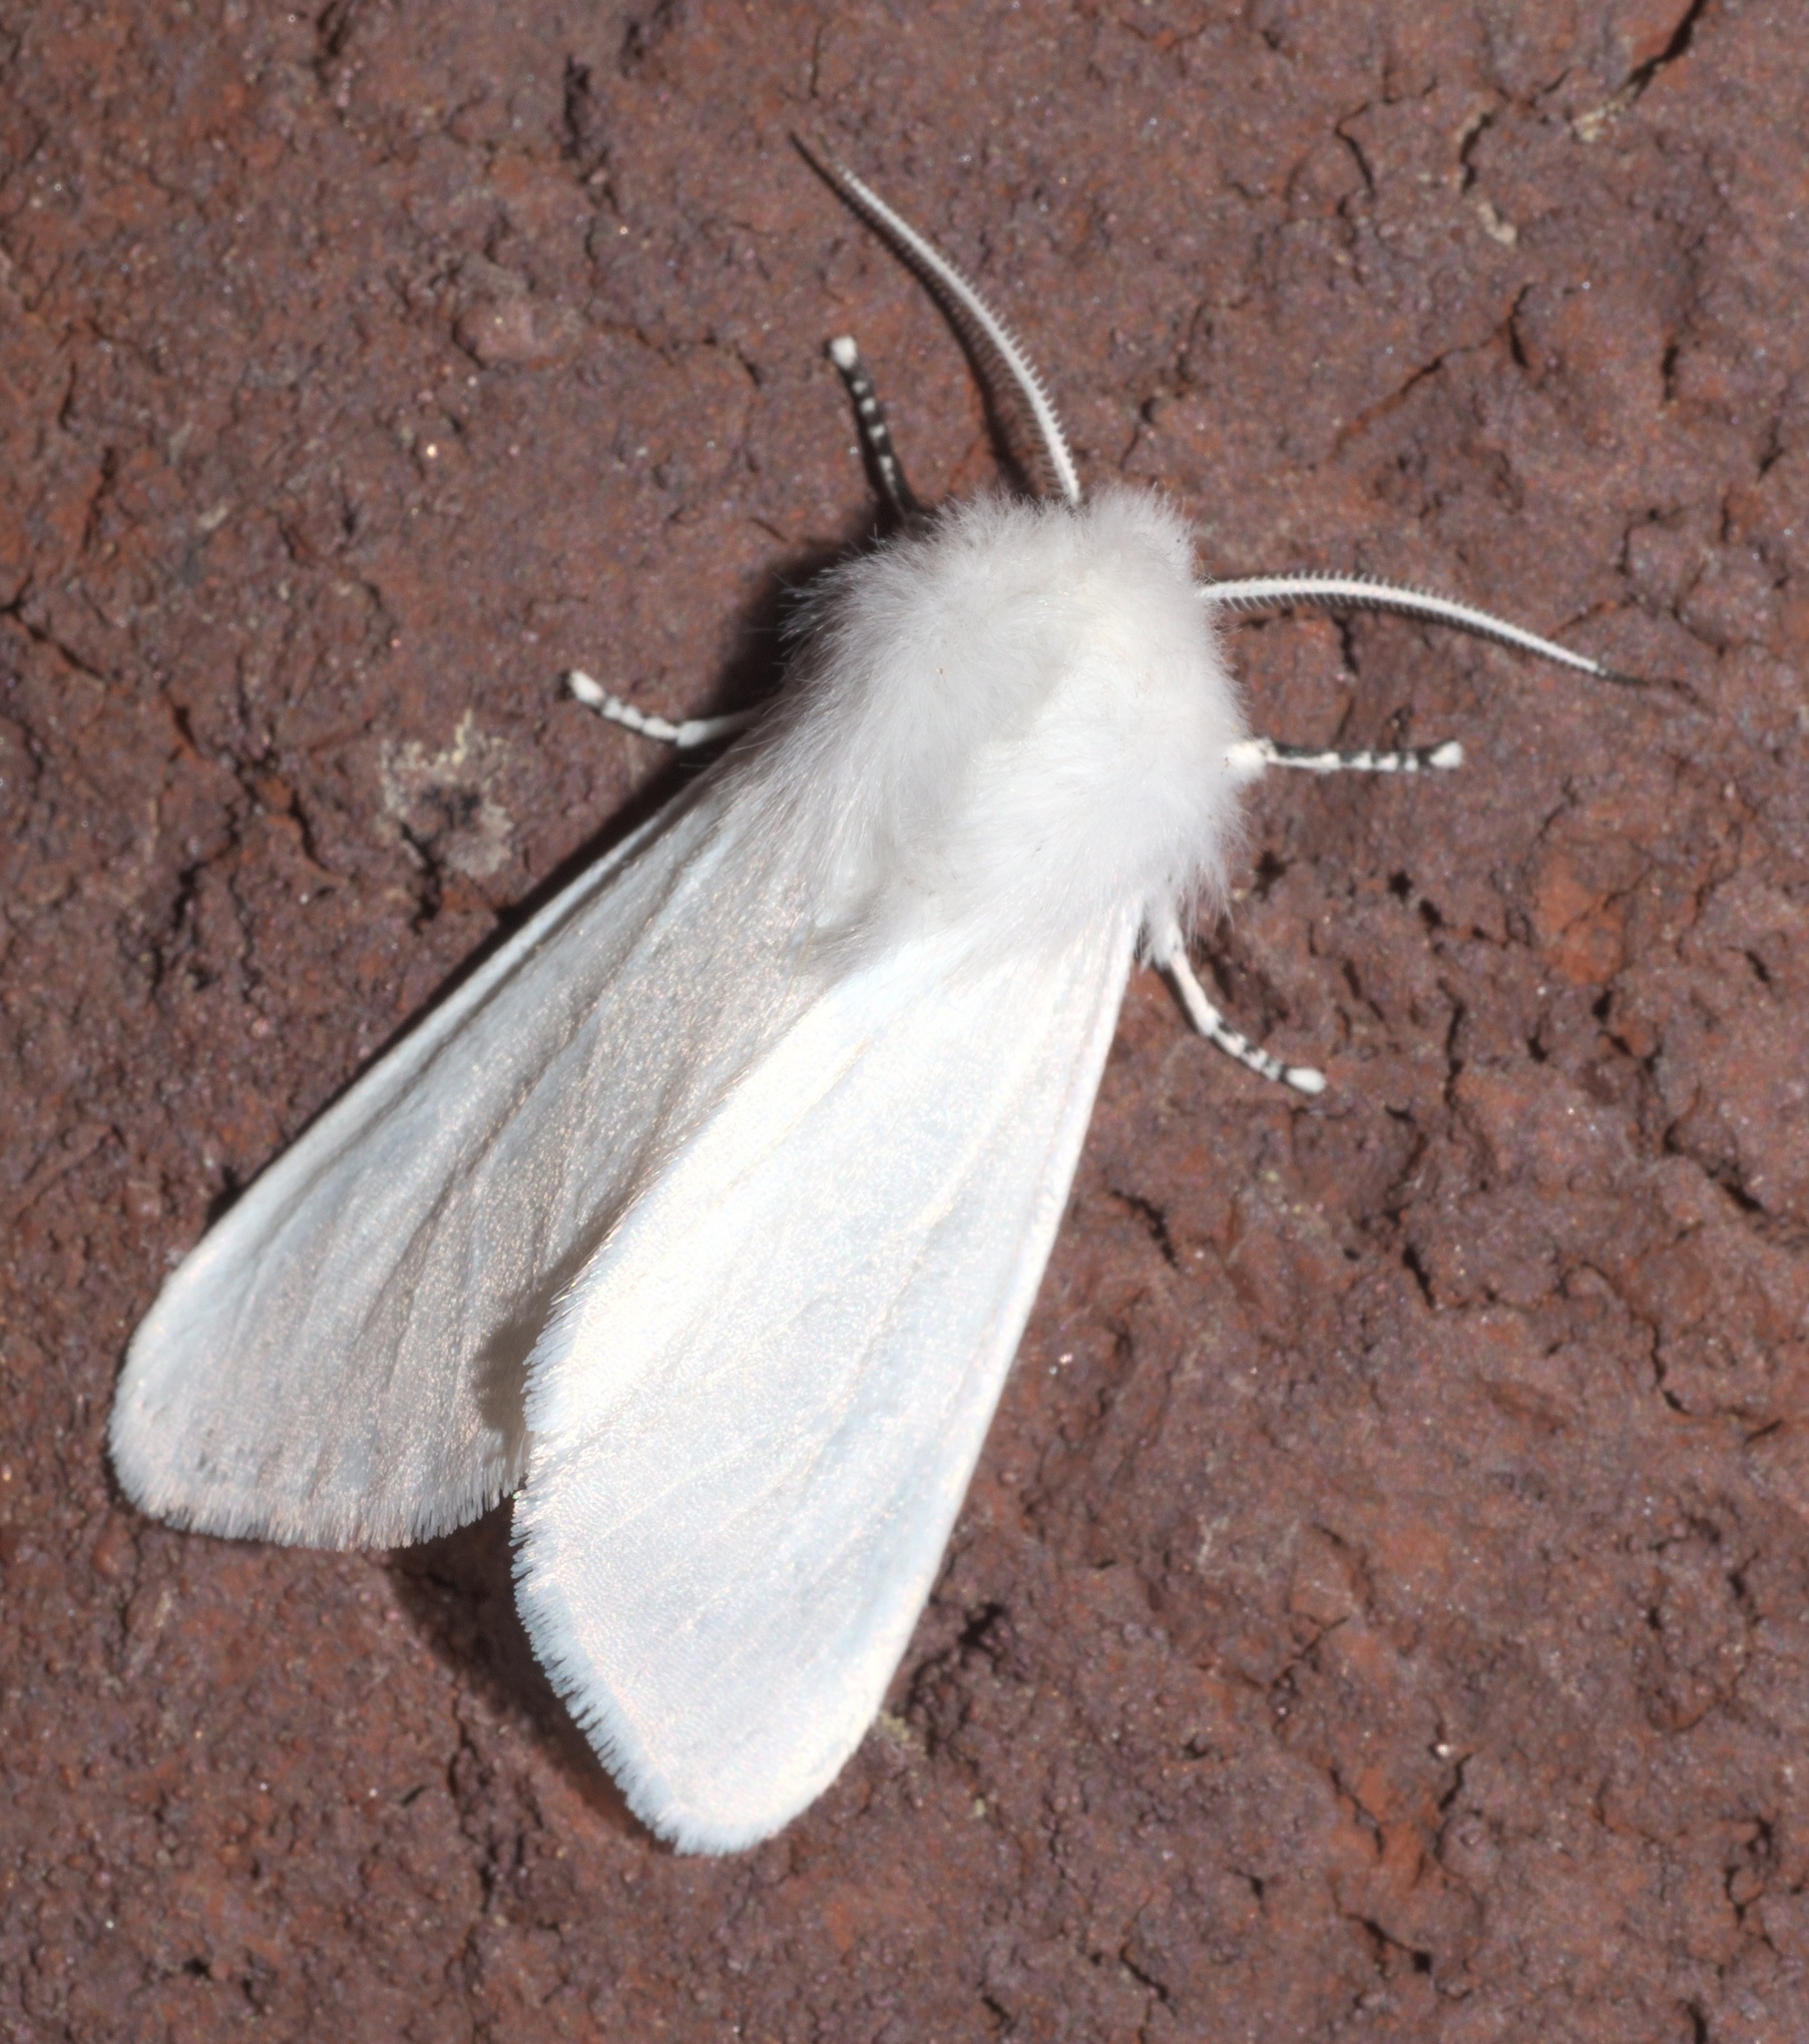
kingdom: Animalia
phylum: Arthropoda
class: Insecta
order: Lepidoptera
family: Erebidae
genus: Hyphantria
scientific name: Hyphantria cunea
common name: American white moth
